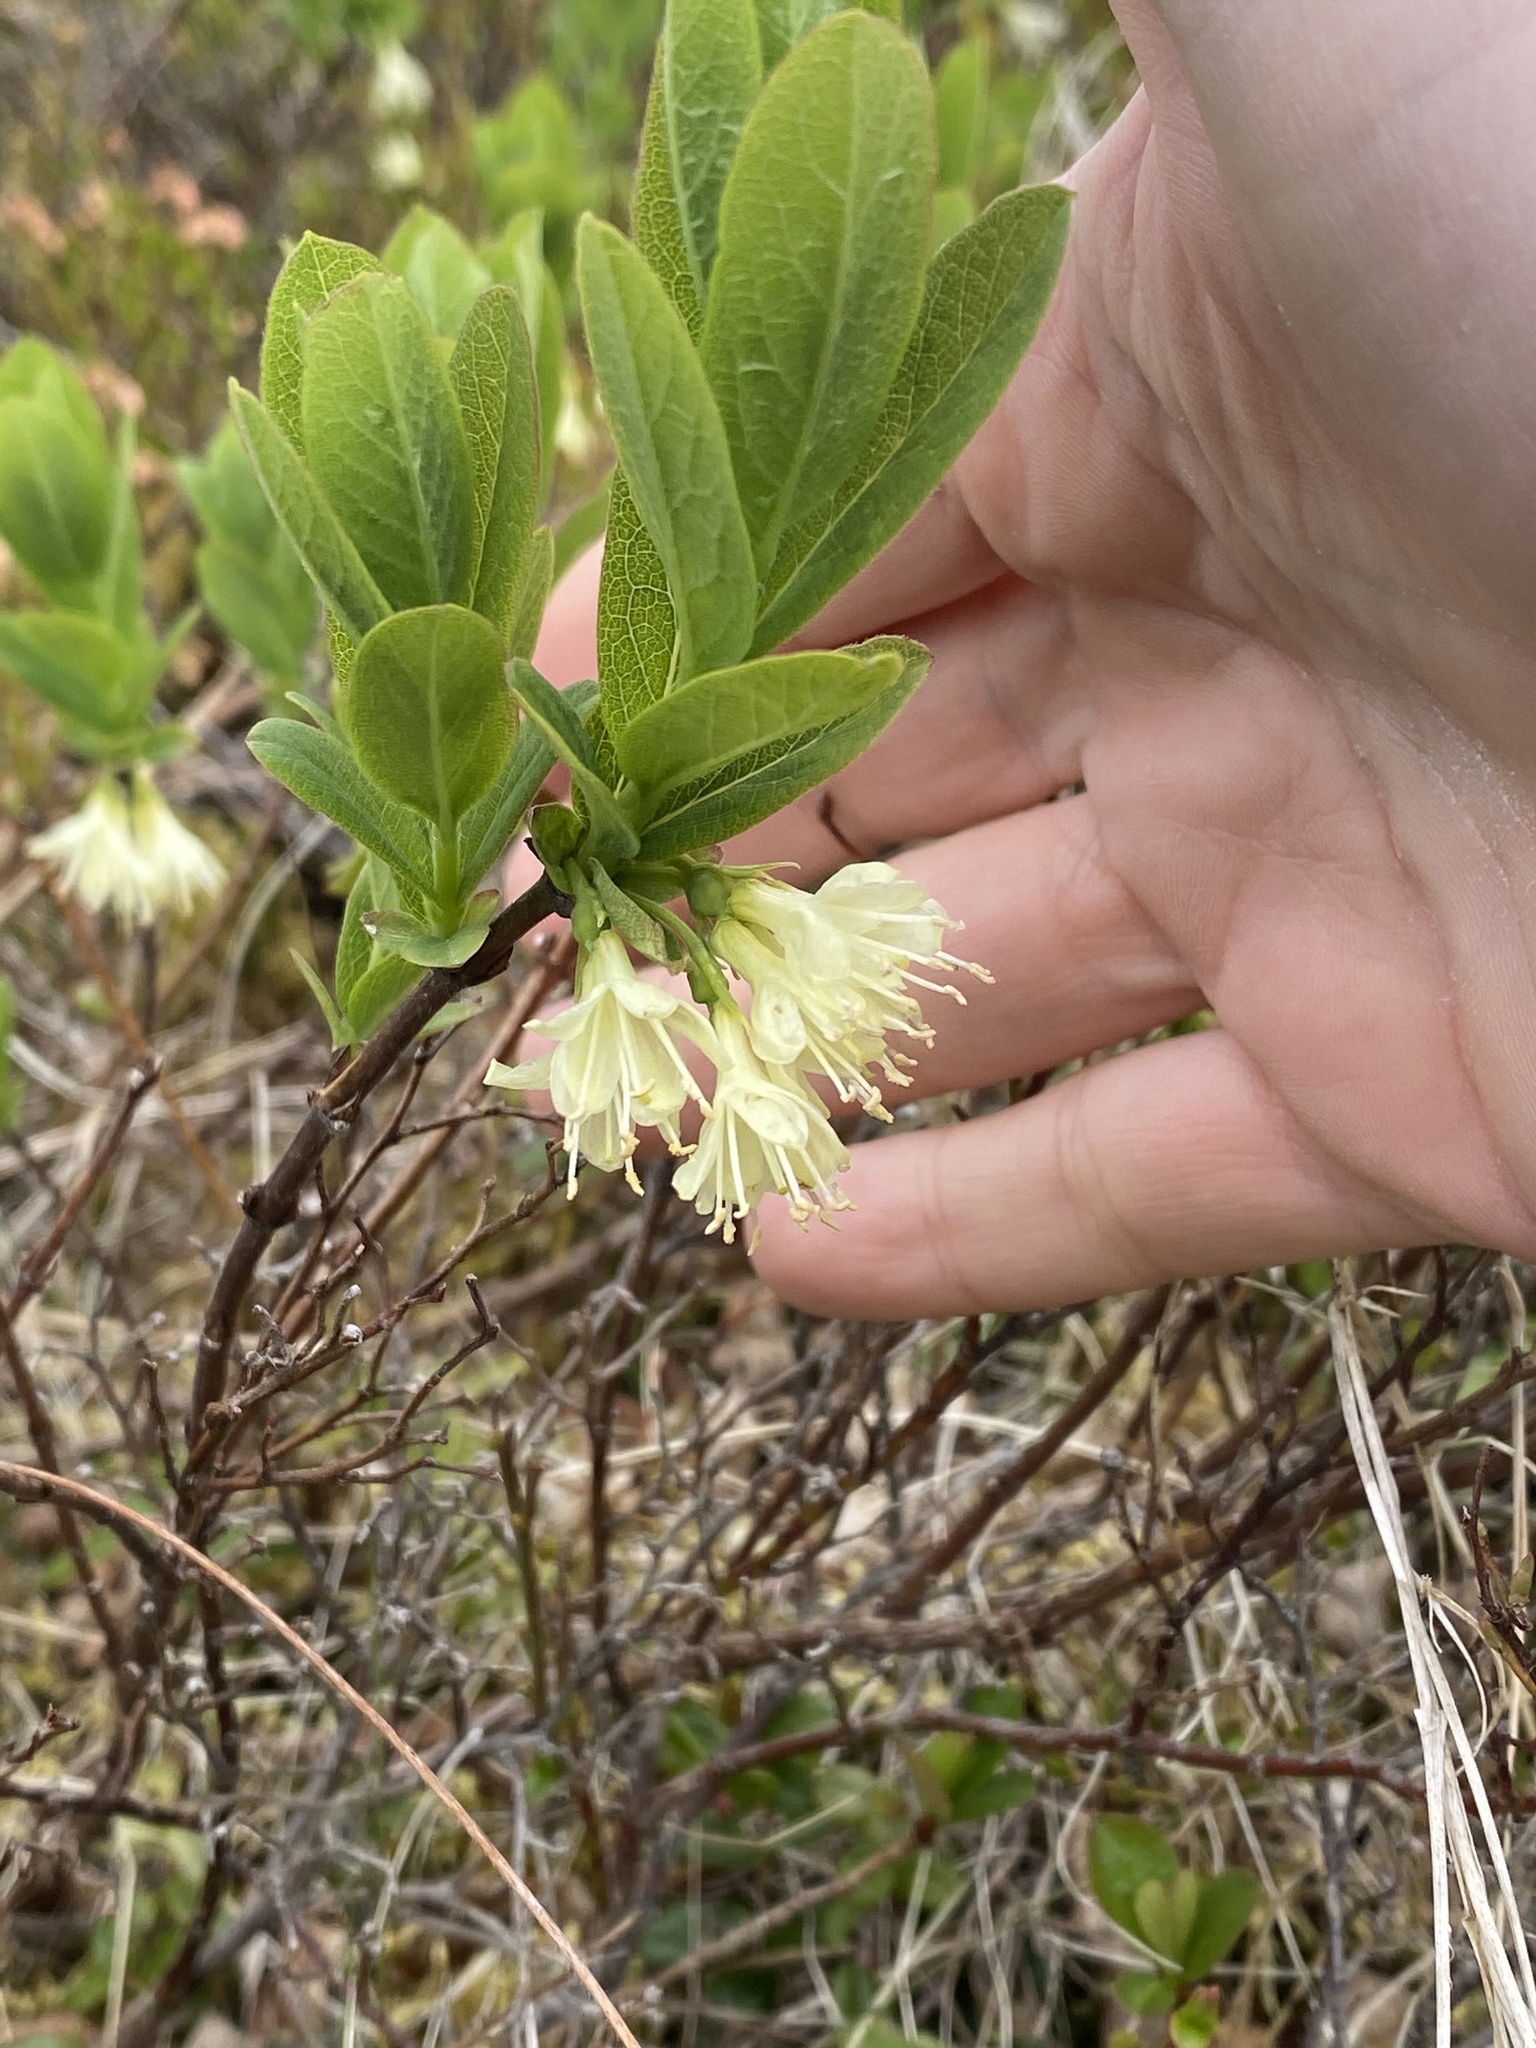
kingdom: Plantae
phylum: Tracheophyta
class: Magnoliopsida
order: Dipsacales
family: Caprifoliaceae
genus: Lonicera
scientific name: Lonicera villosa
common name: Mountain fly-honeysuckle
